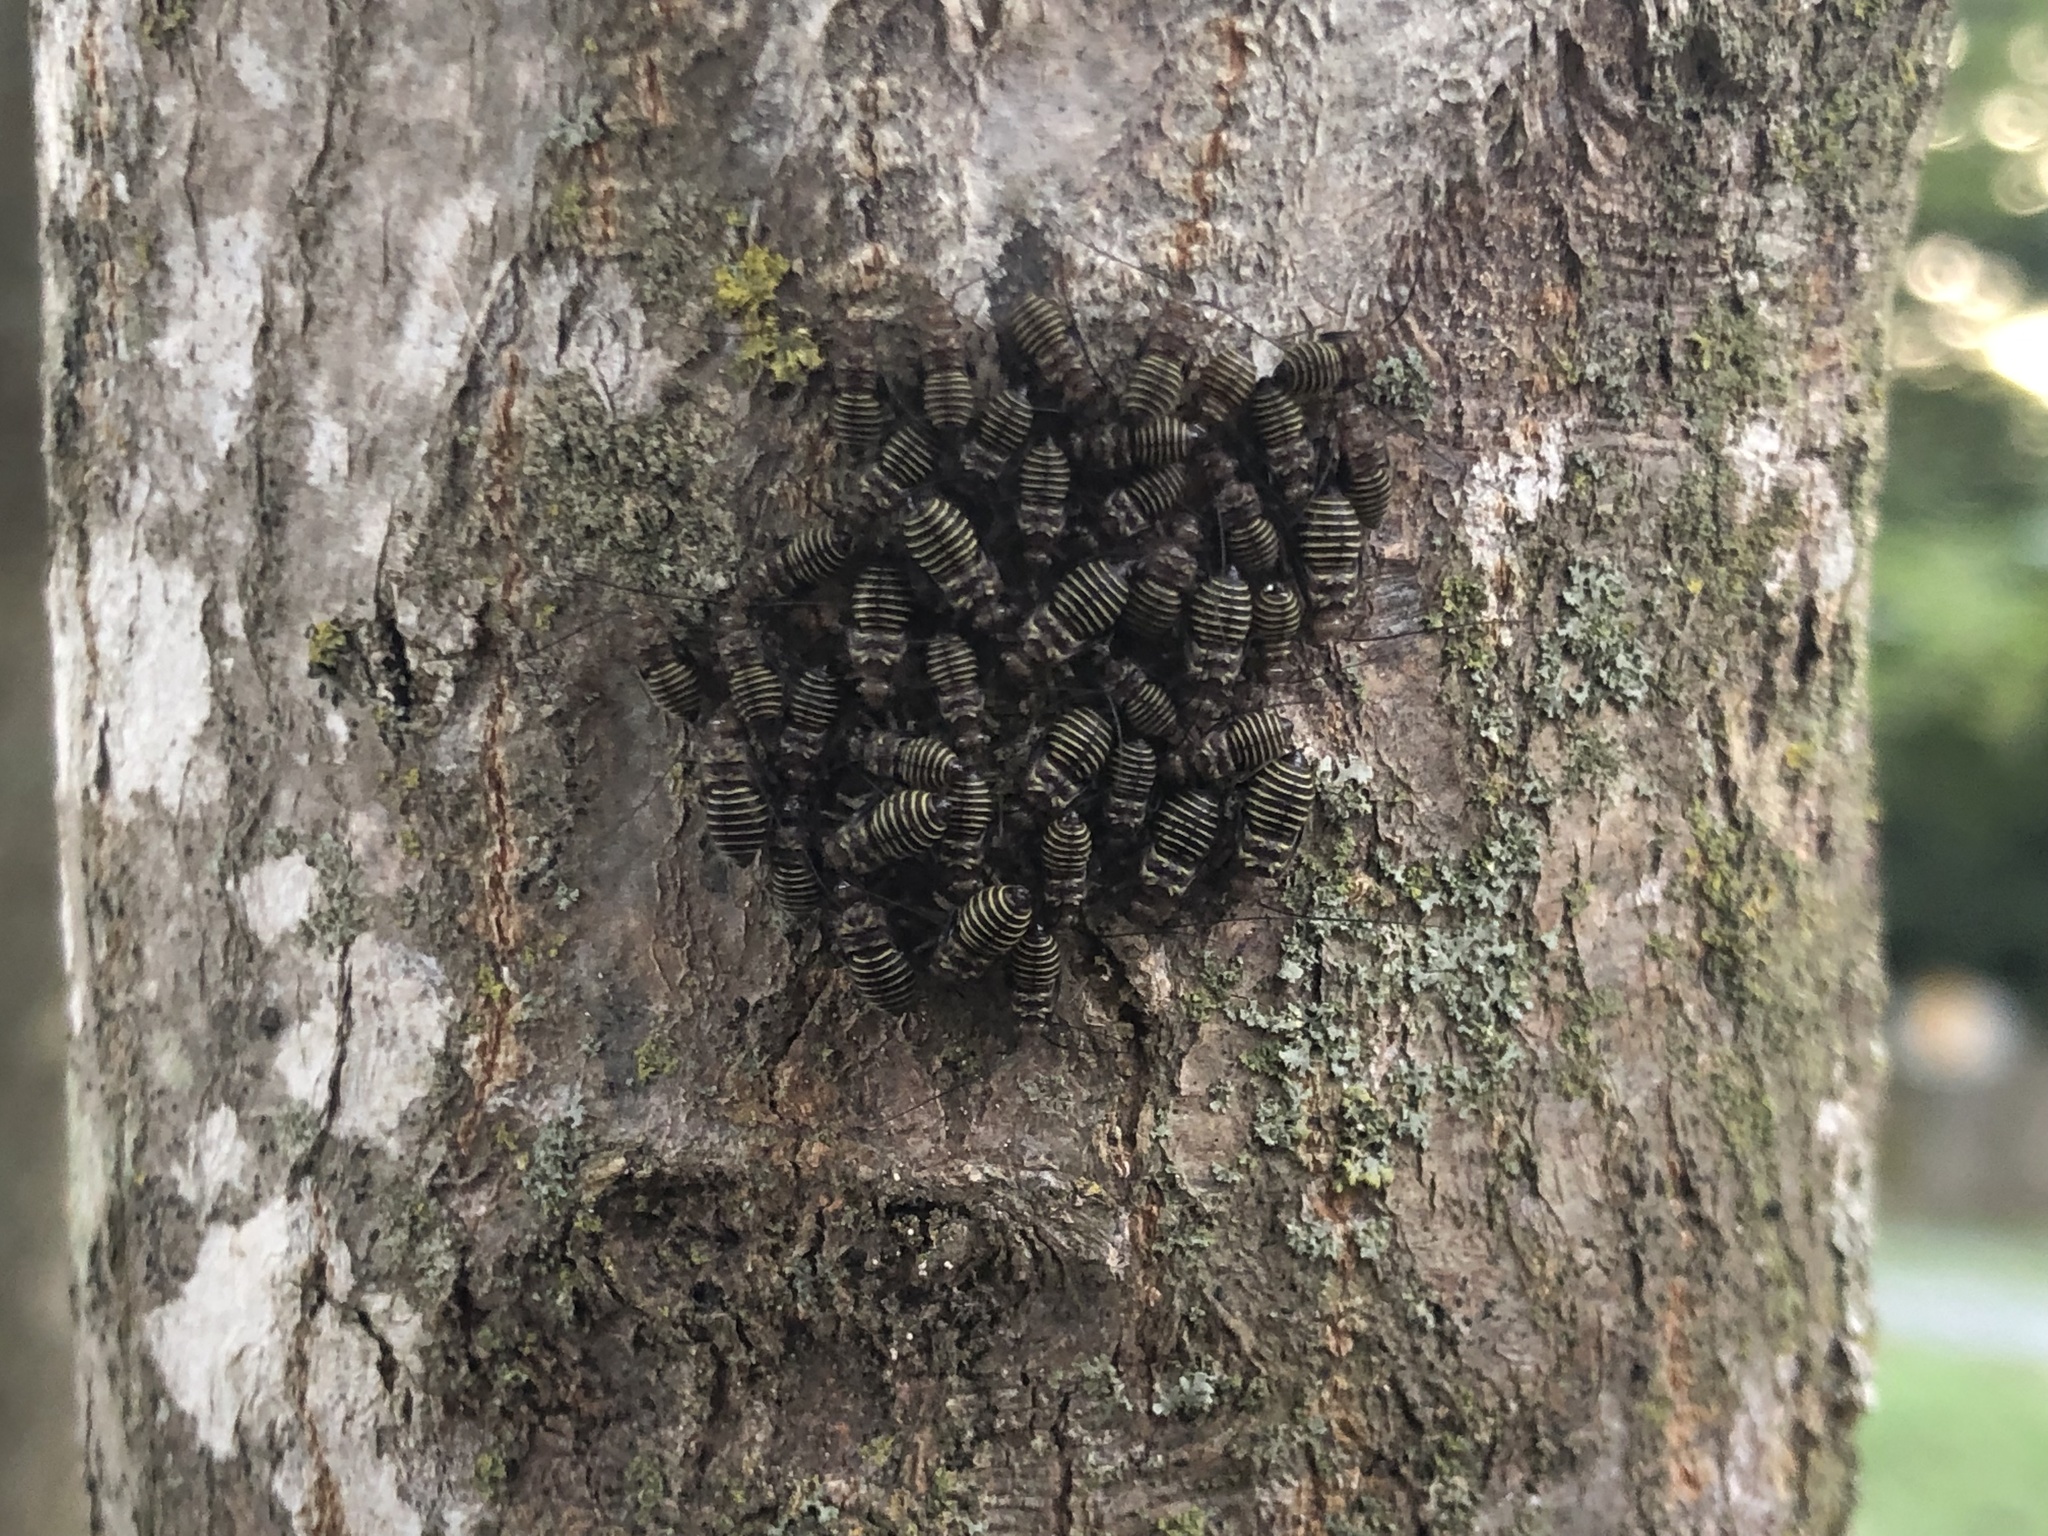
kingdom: Animalia
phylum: Arthropoda
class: Insecta
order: Psocodea
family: Psocidae
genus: Cerastipsocus
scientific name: Cerastipsocus venosus
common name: Tree cattle
